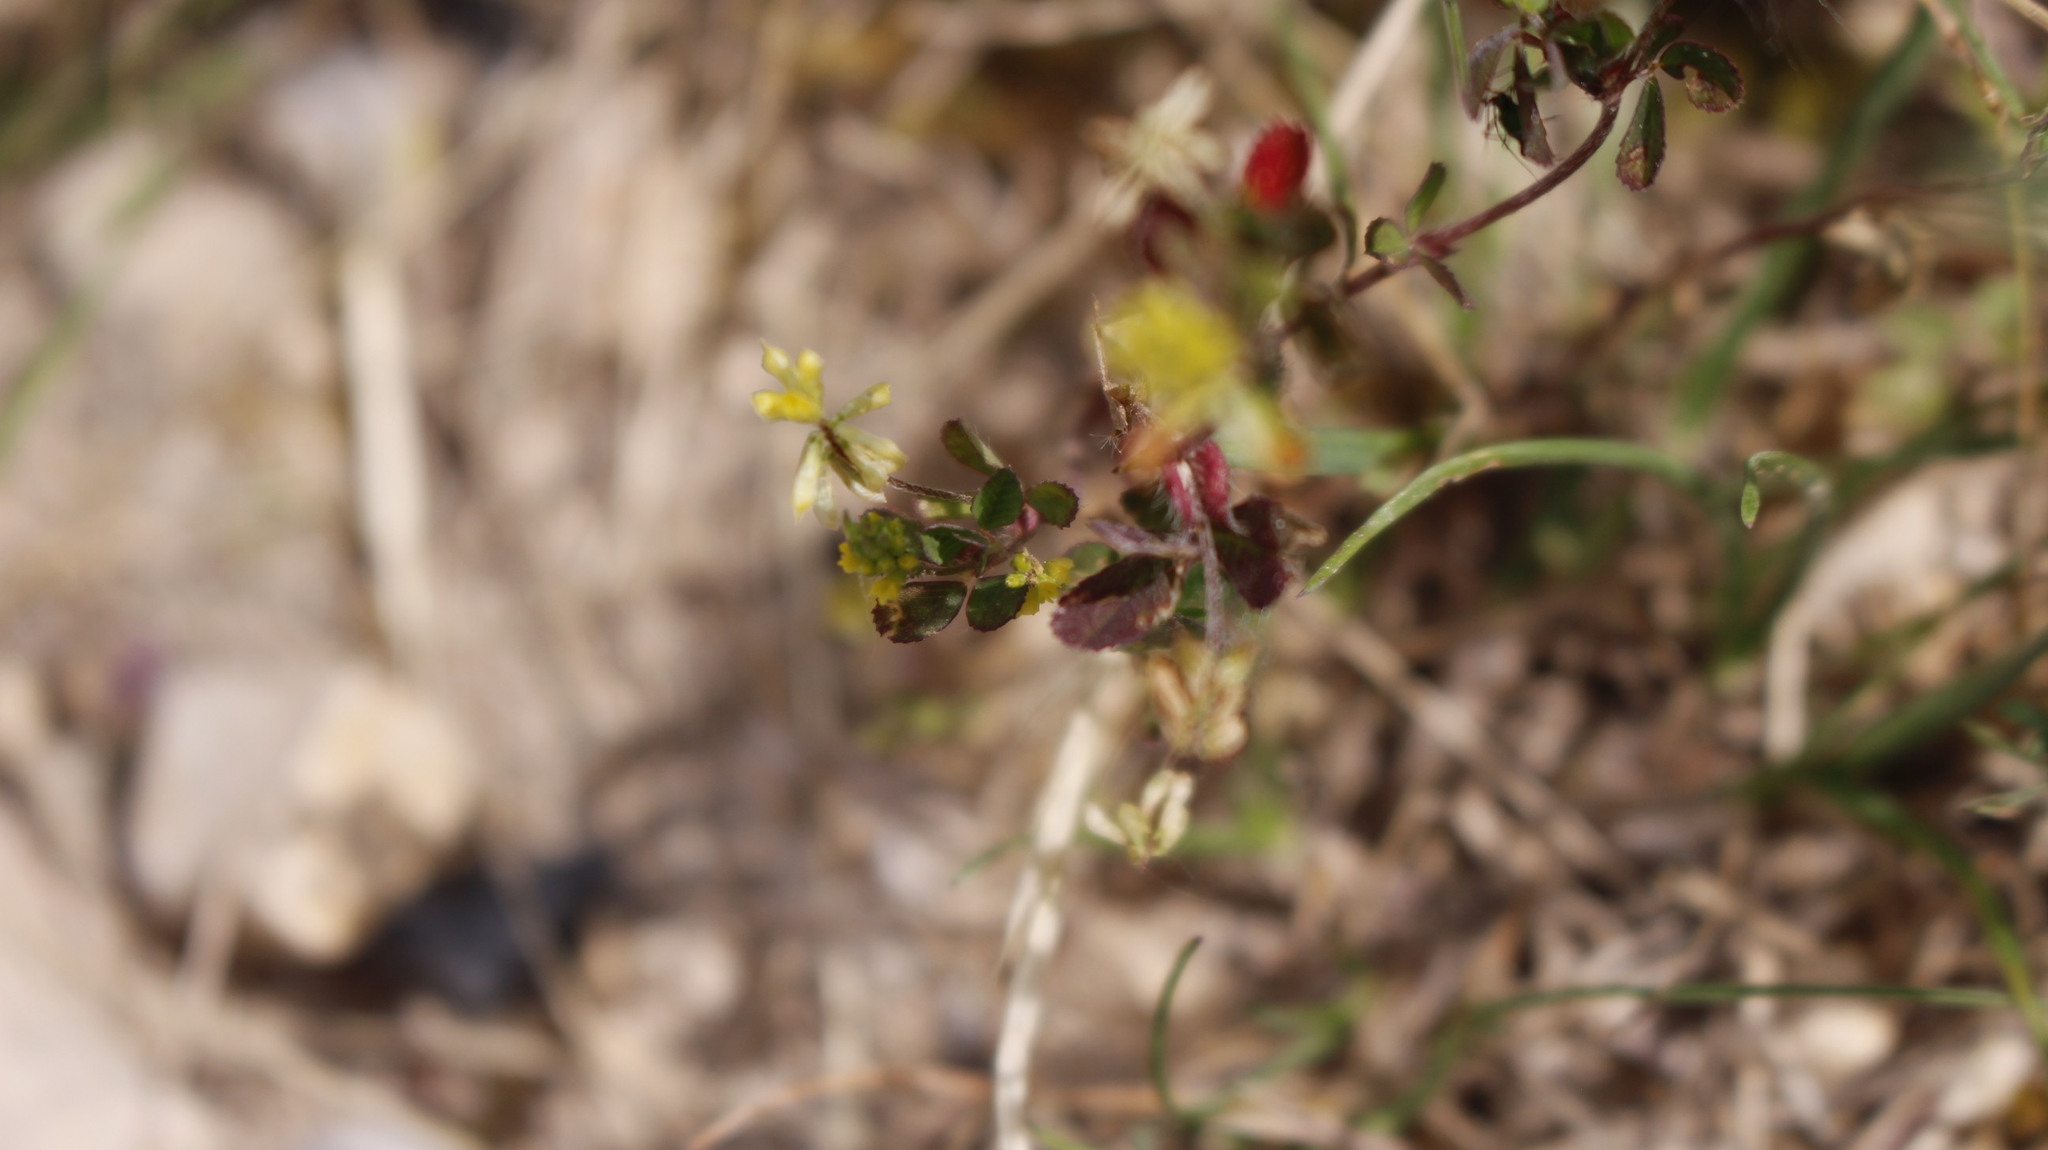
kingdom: Plantae
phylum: Tracheophyta
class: Magnoliopsida
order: Fabales
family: Fabaceae
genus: Trifolium
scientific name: Trifolium dubium
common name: Suckling clover
